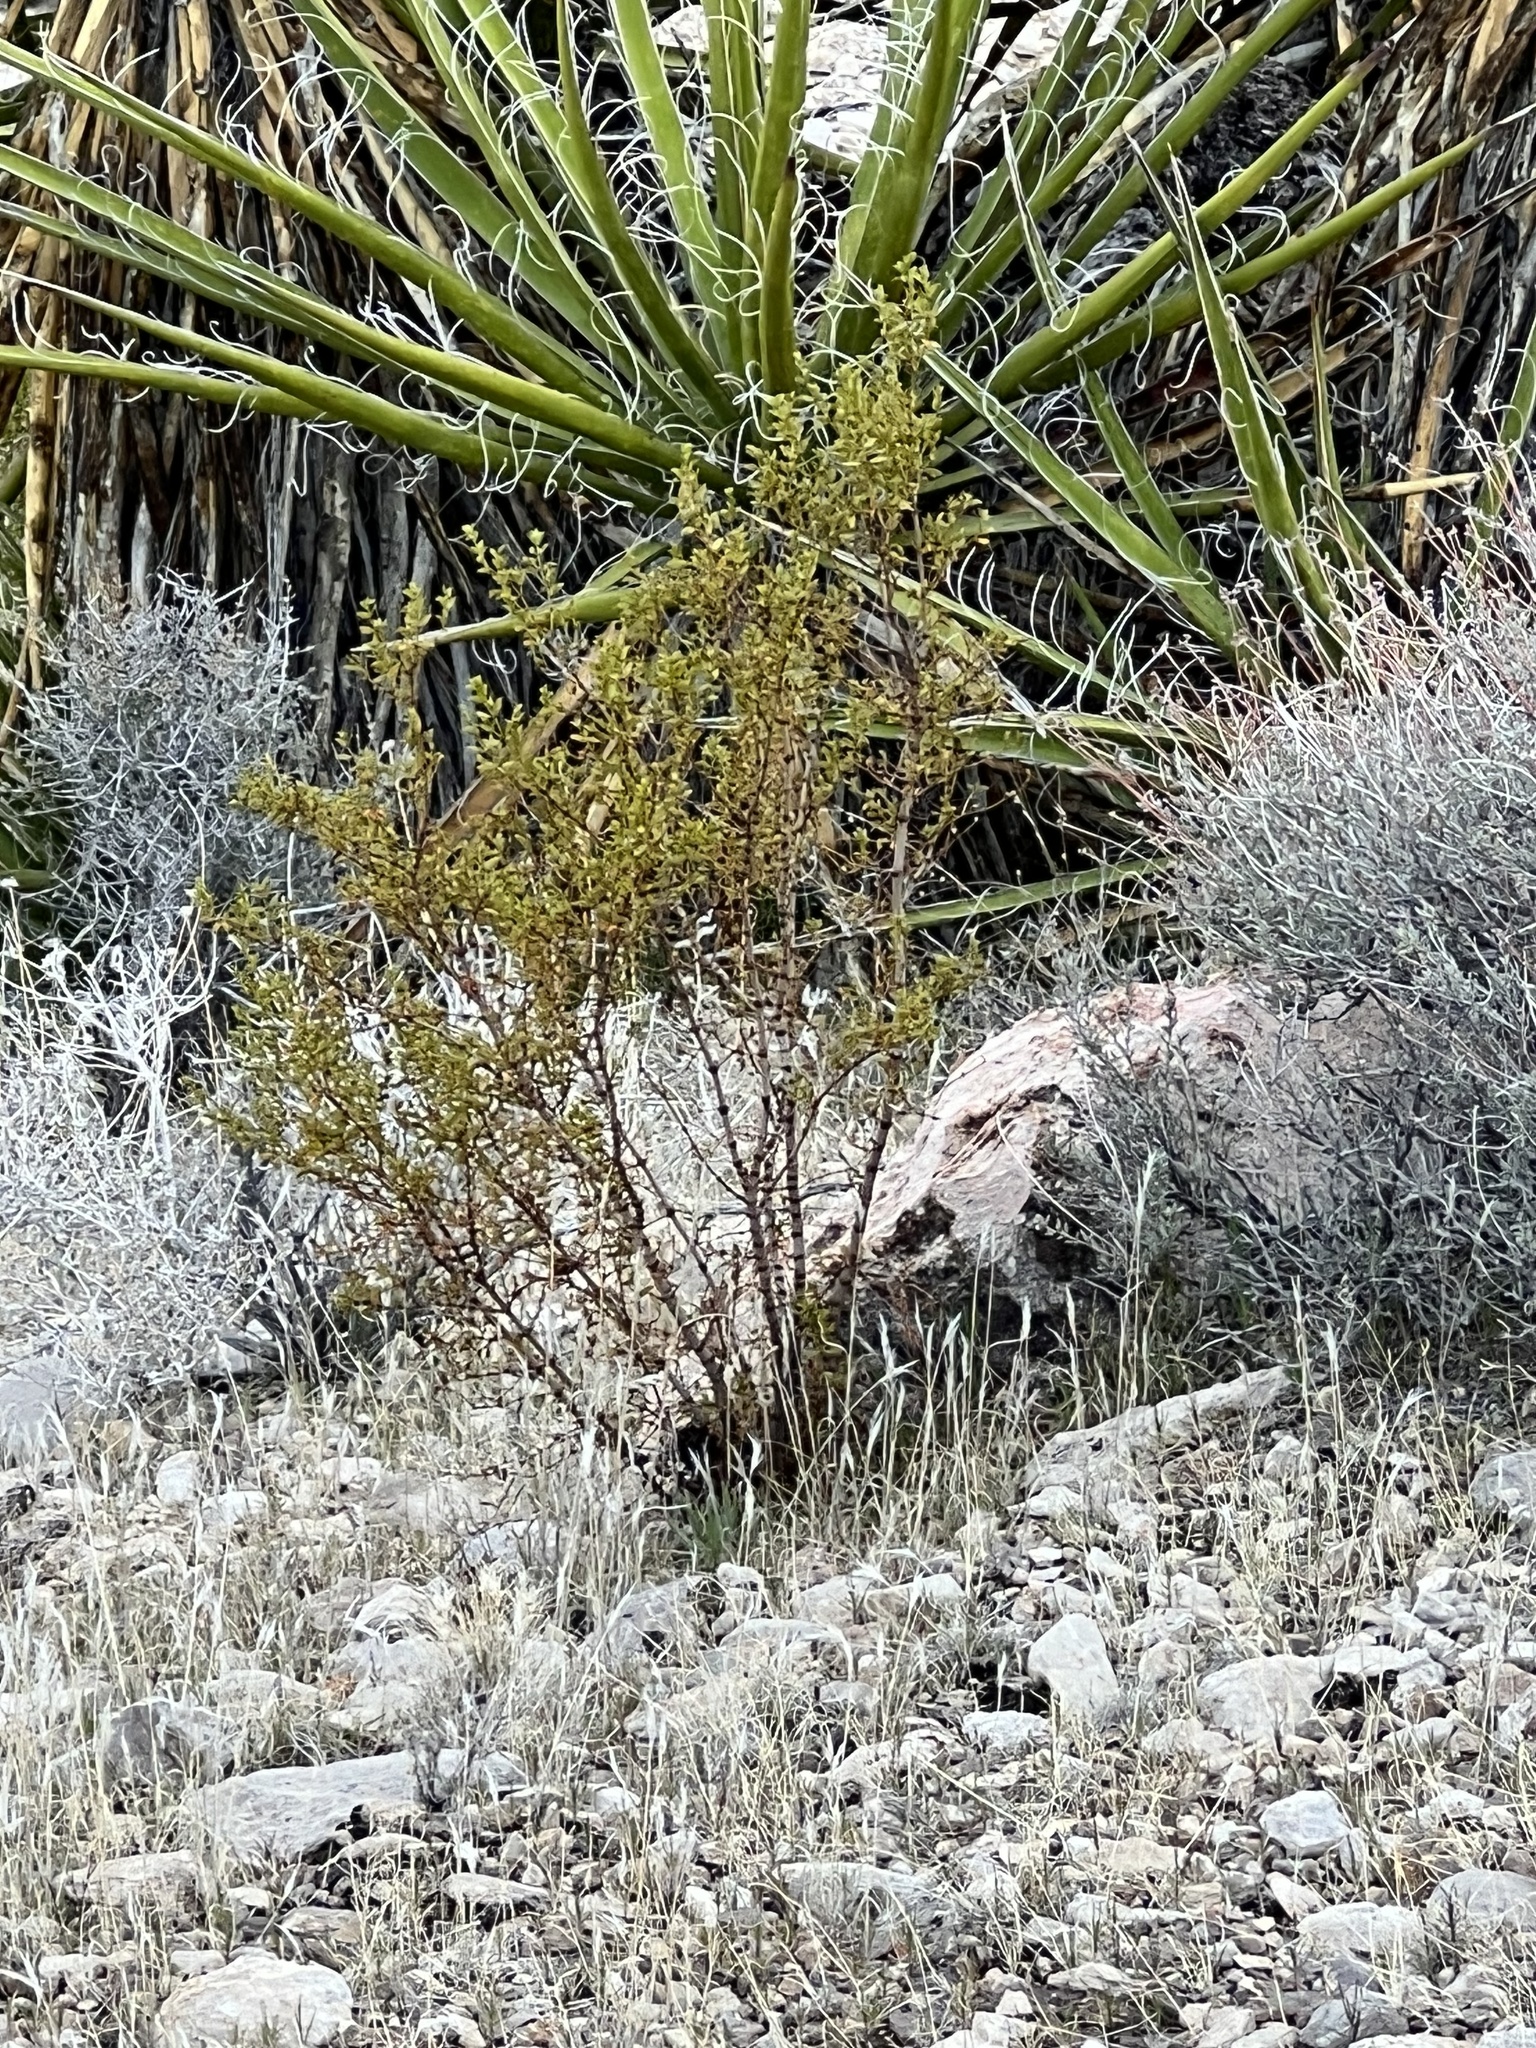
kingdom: Plantae
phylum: Tracheophyta
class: Magnoliopsida
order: Zygophyllales
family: Zygophyllaceae
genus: Larrea
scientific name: Larrea tridentata
